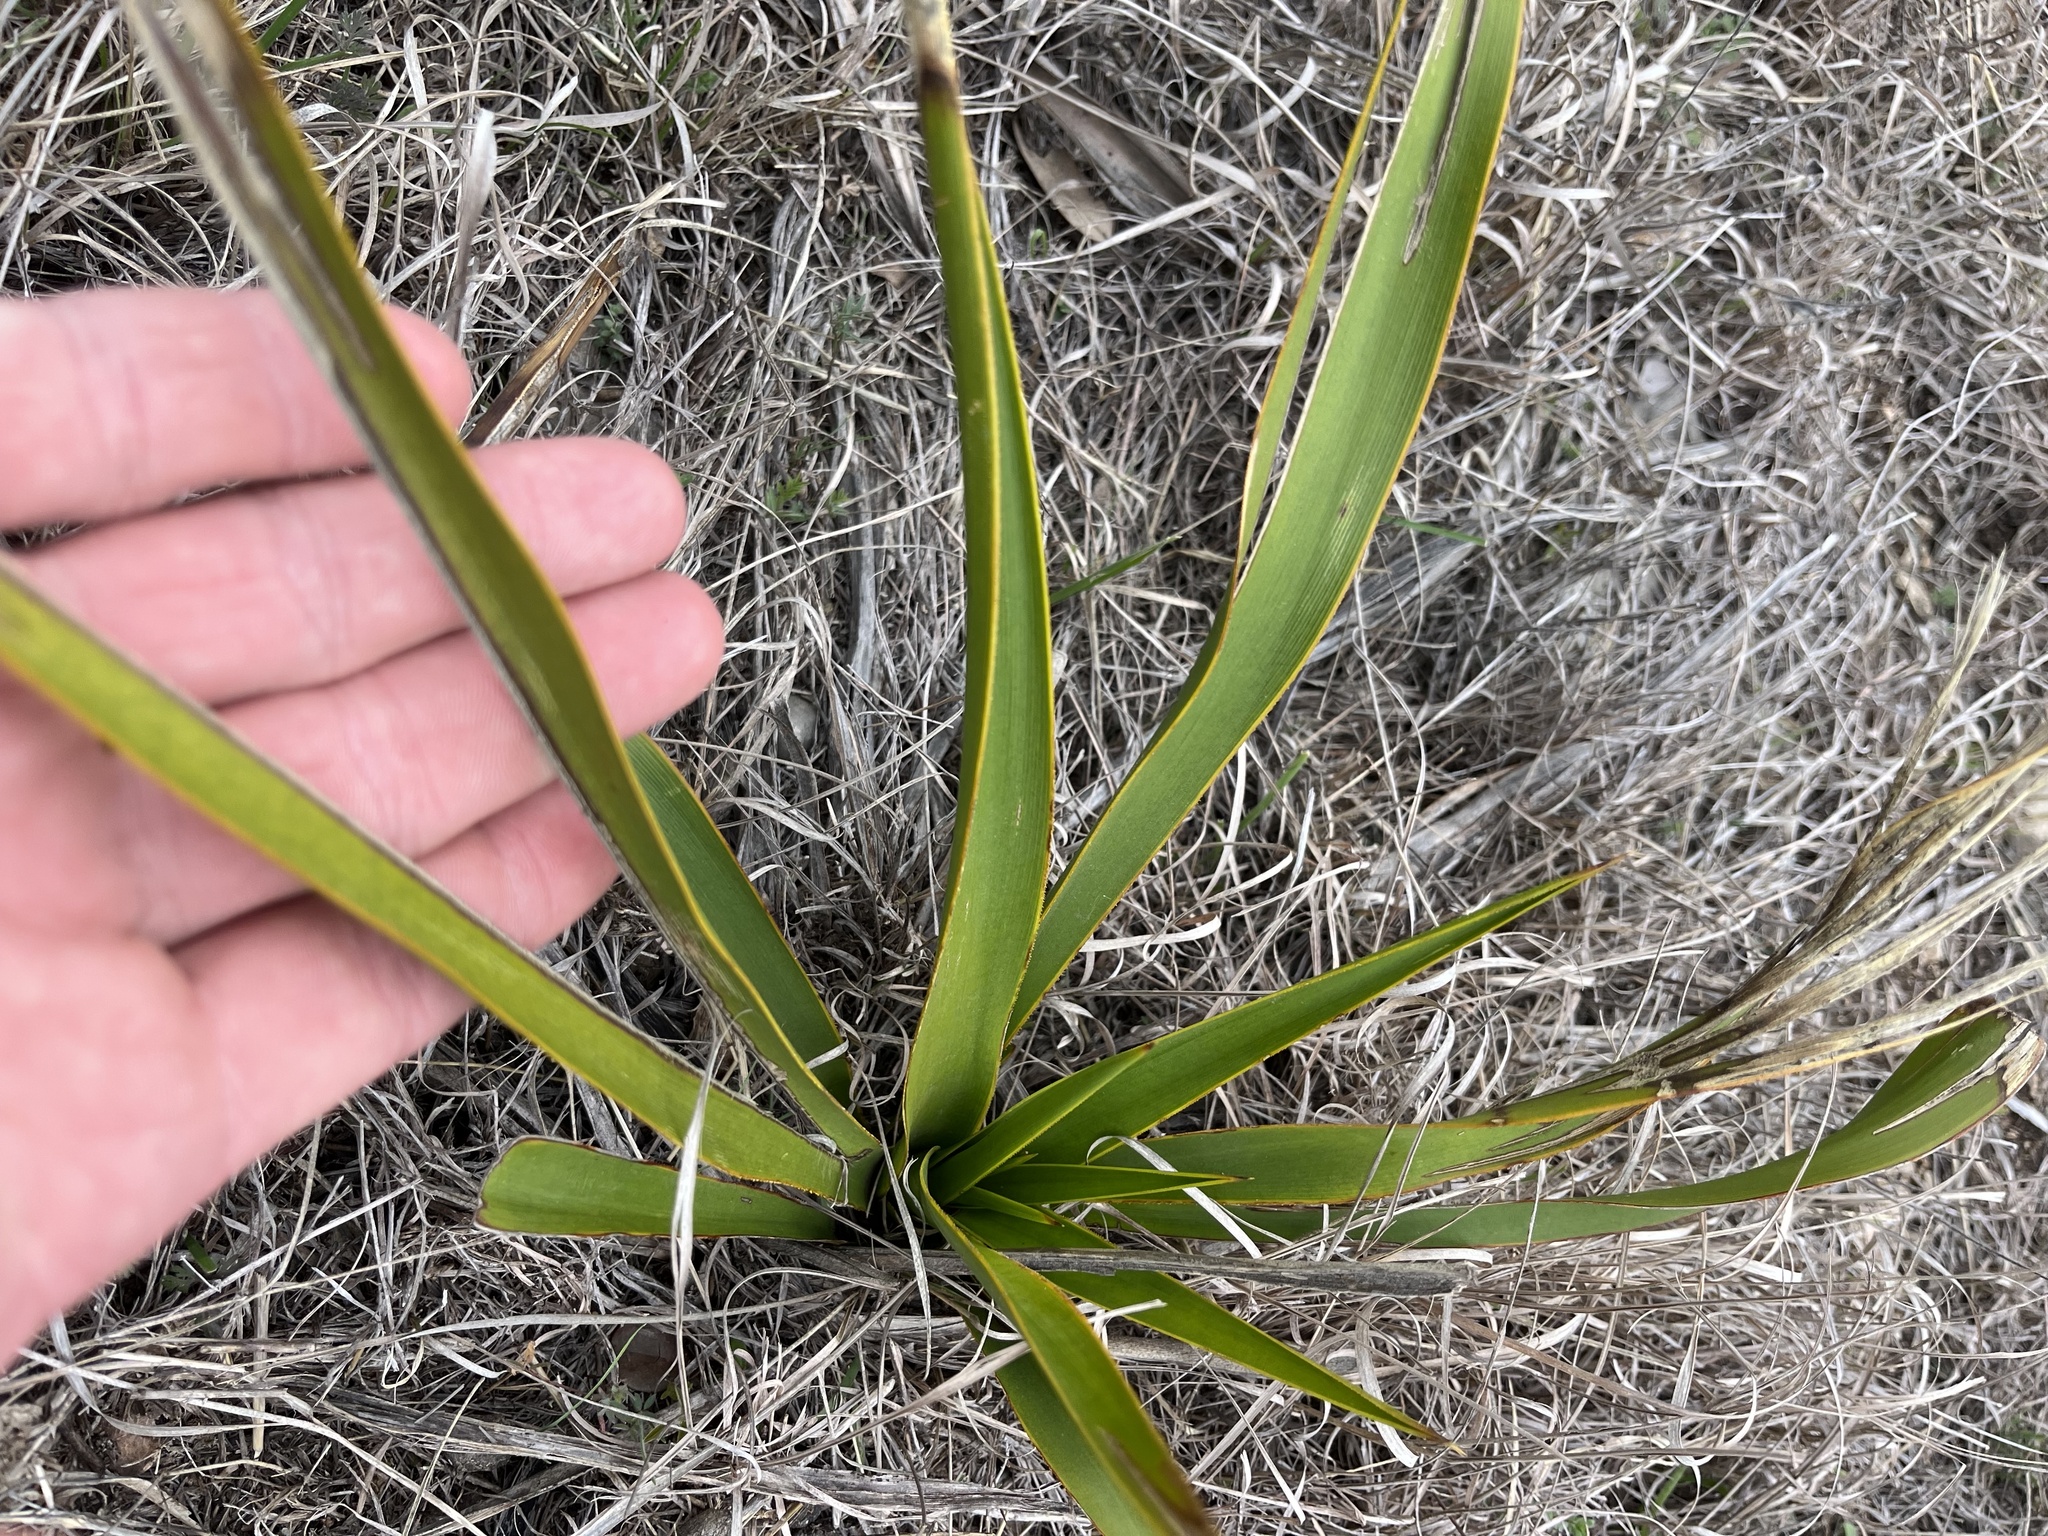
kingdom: Plantae
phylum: Tracheophyta
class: Liliopsida
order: Asparagales
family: Asparagaceae
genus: Yucca
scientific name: Yucca rupicola
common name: Twisted-leaf spanish-dagger
